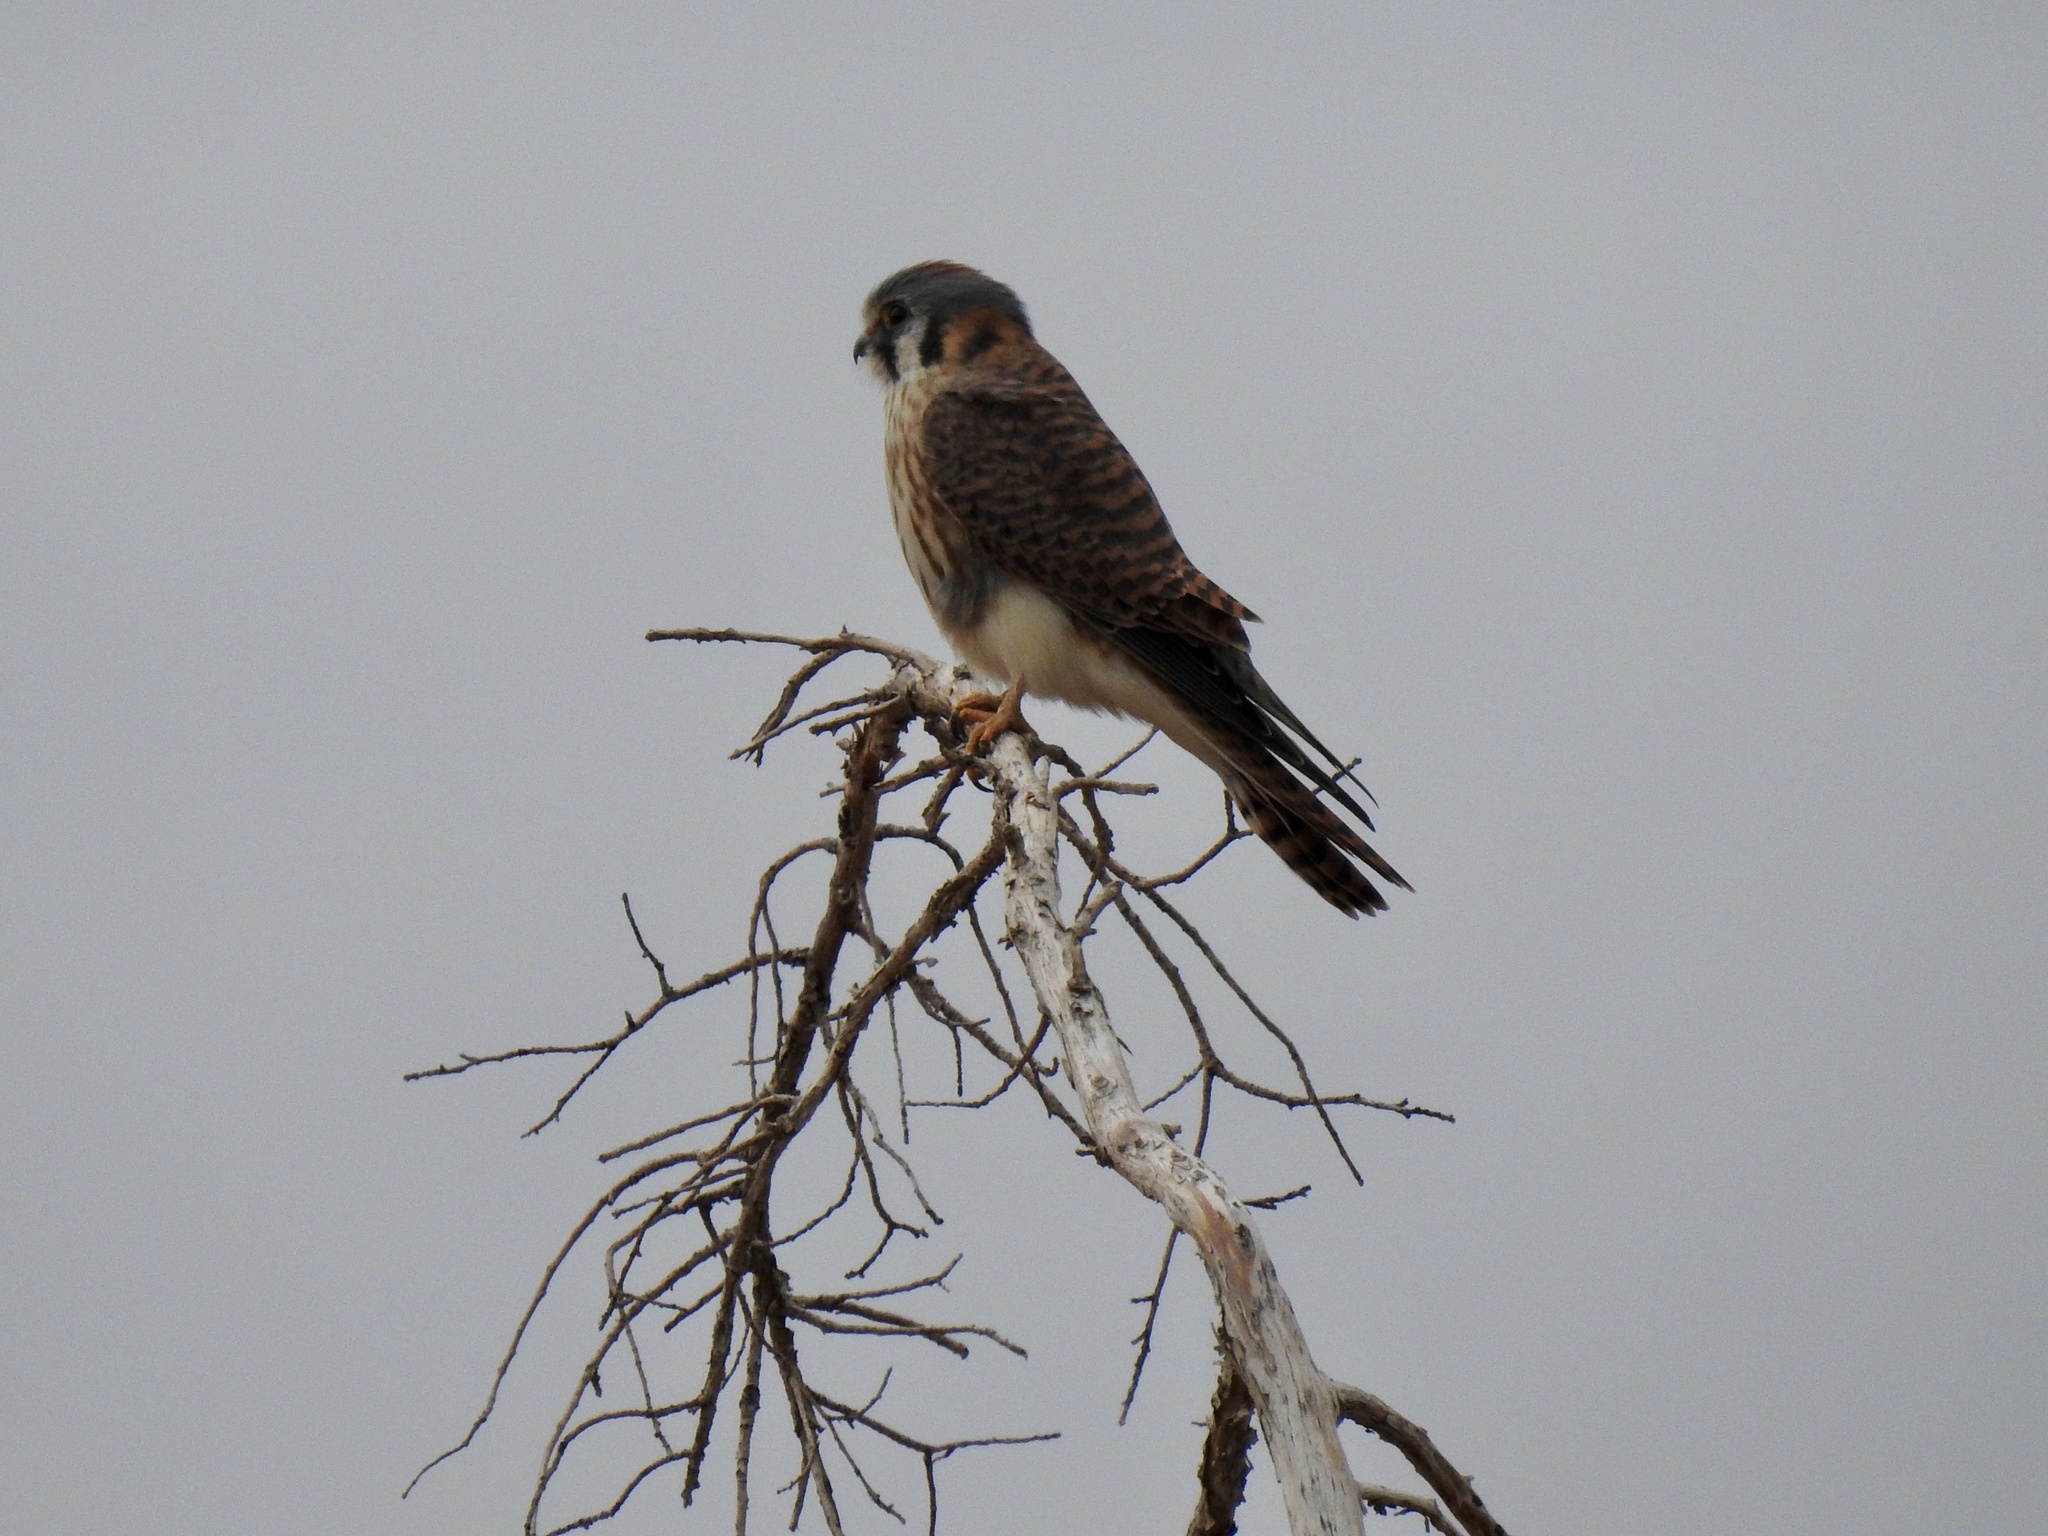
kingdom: Animalia
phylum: Chordata
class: Aves
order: Falconiformes
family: Falconidae
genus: Falco
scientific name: Falco sparverius
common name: American kestrel
